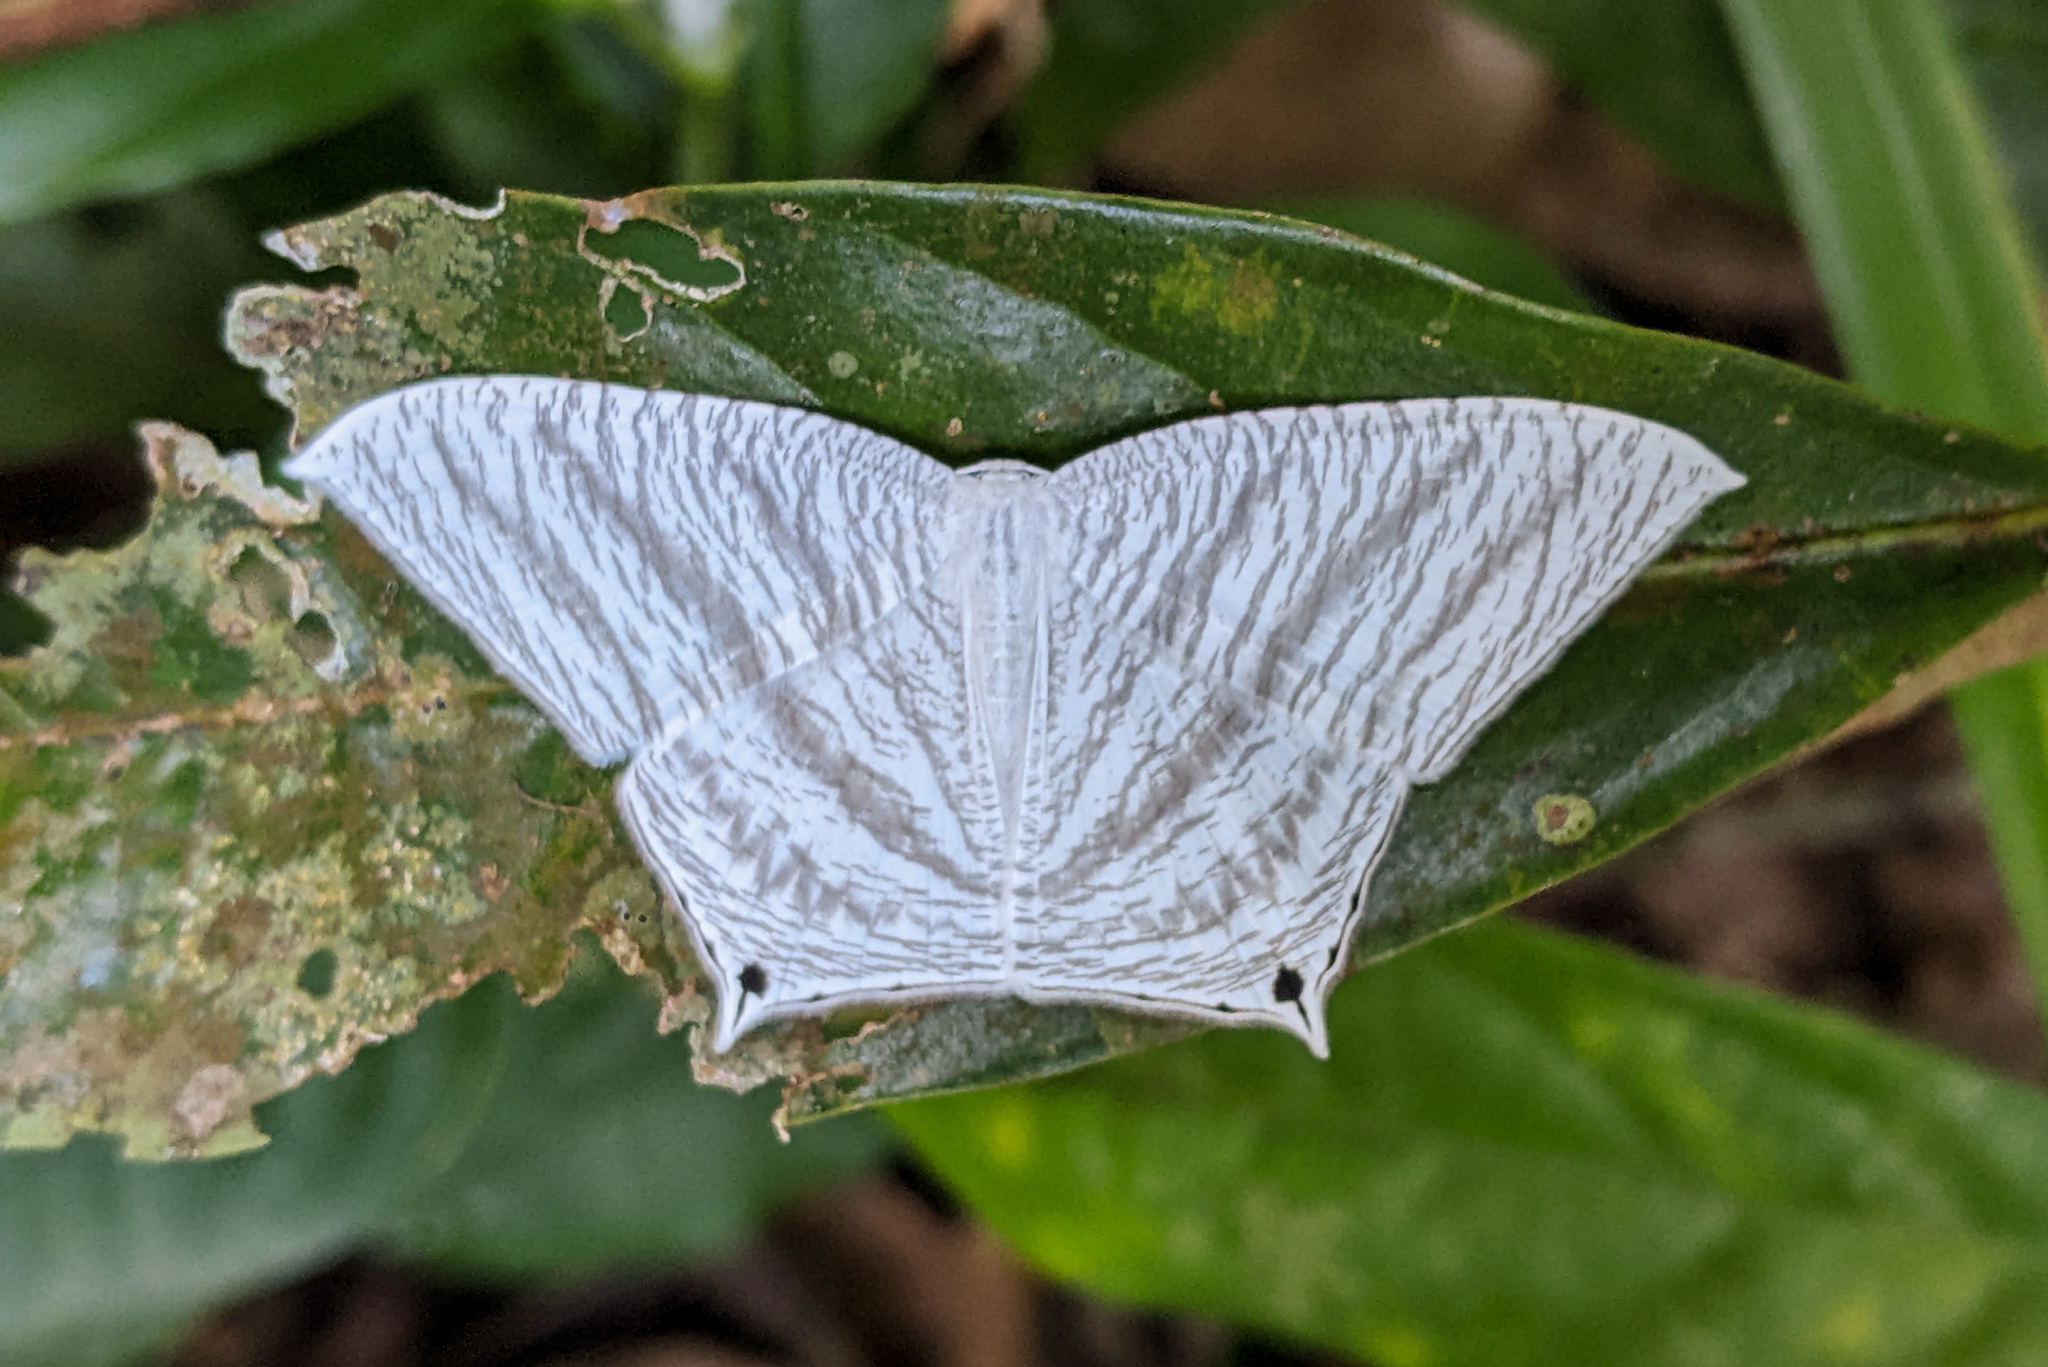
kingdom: Animalia
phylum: Arthropoda
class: Insecta
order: Lepidoptera
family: Uraniidae
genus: Micronia
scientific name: Micronia aculeata
